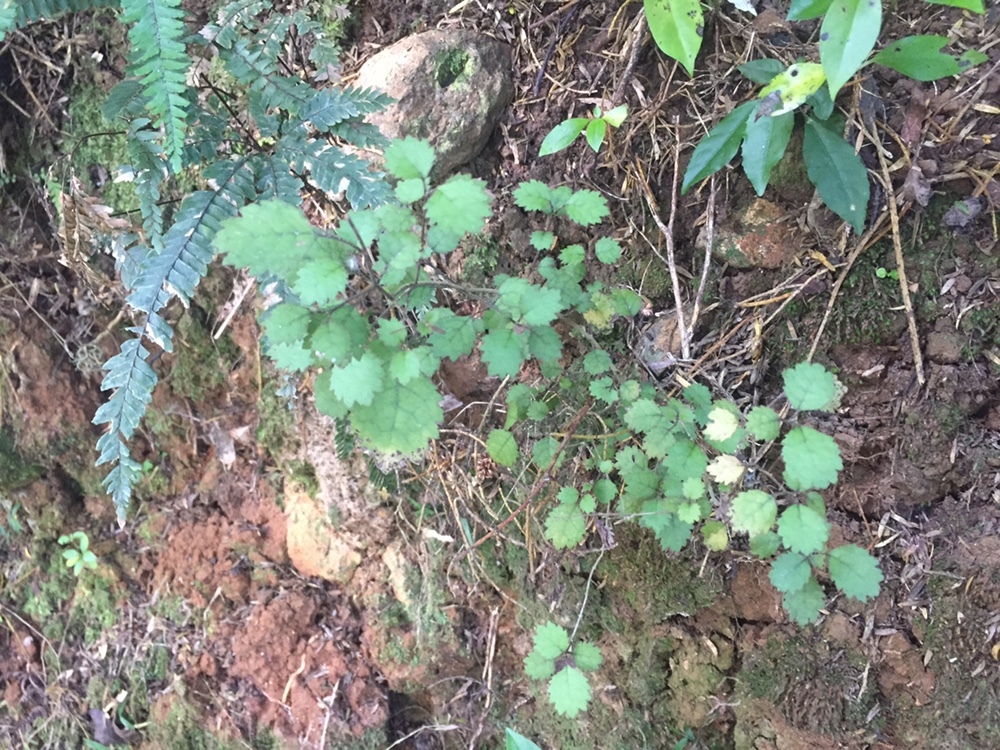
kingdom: Plantae
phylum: Tracheophyta
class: Magnoliopsida
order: Lamiales
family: Gesneriaceae
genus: Rhabdothamnus
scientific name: Rhabdothamnus solandri
